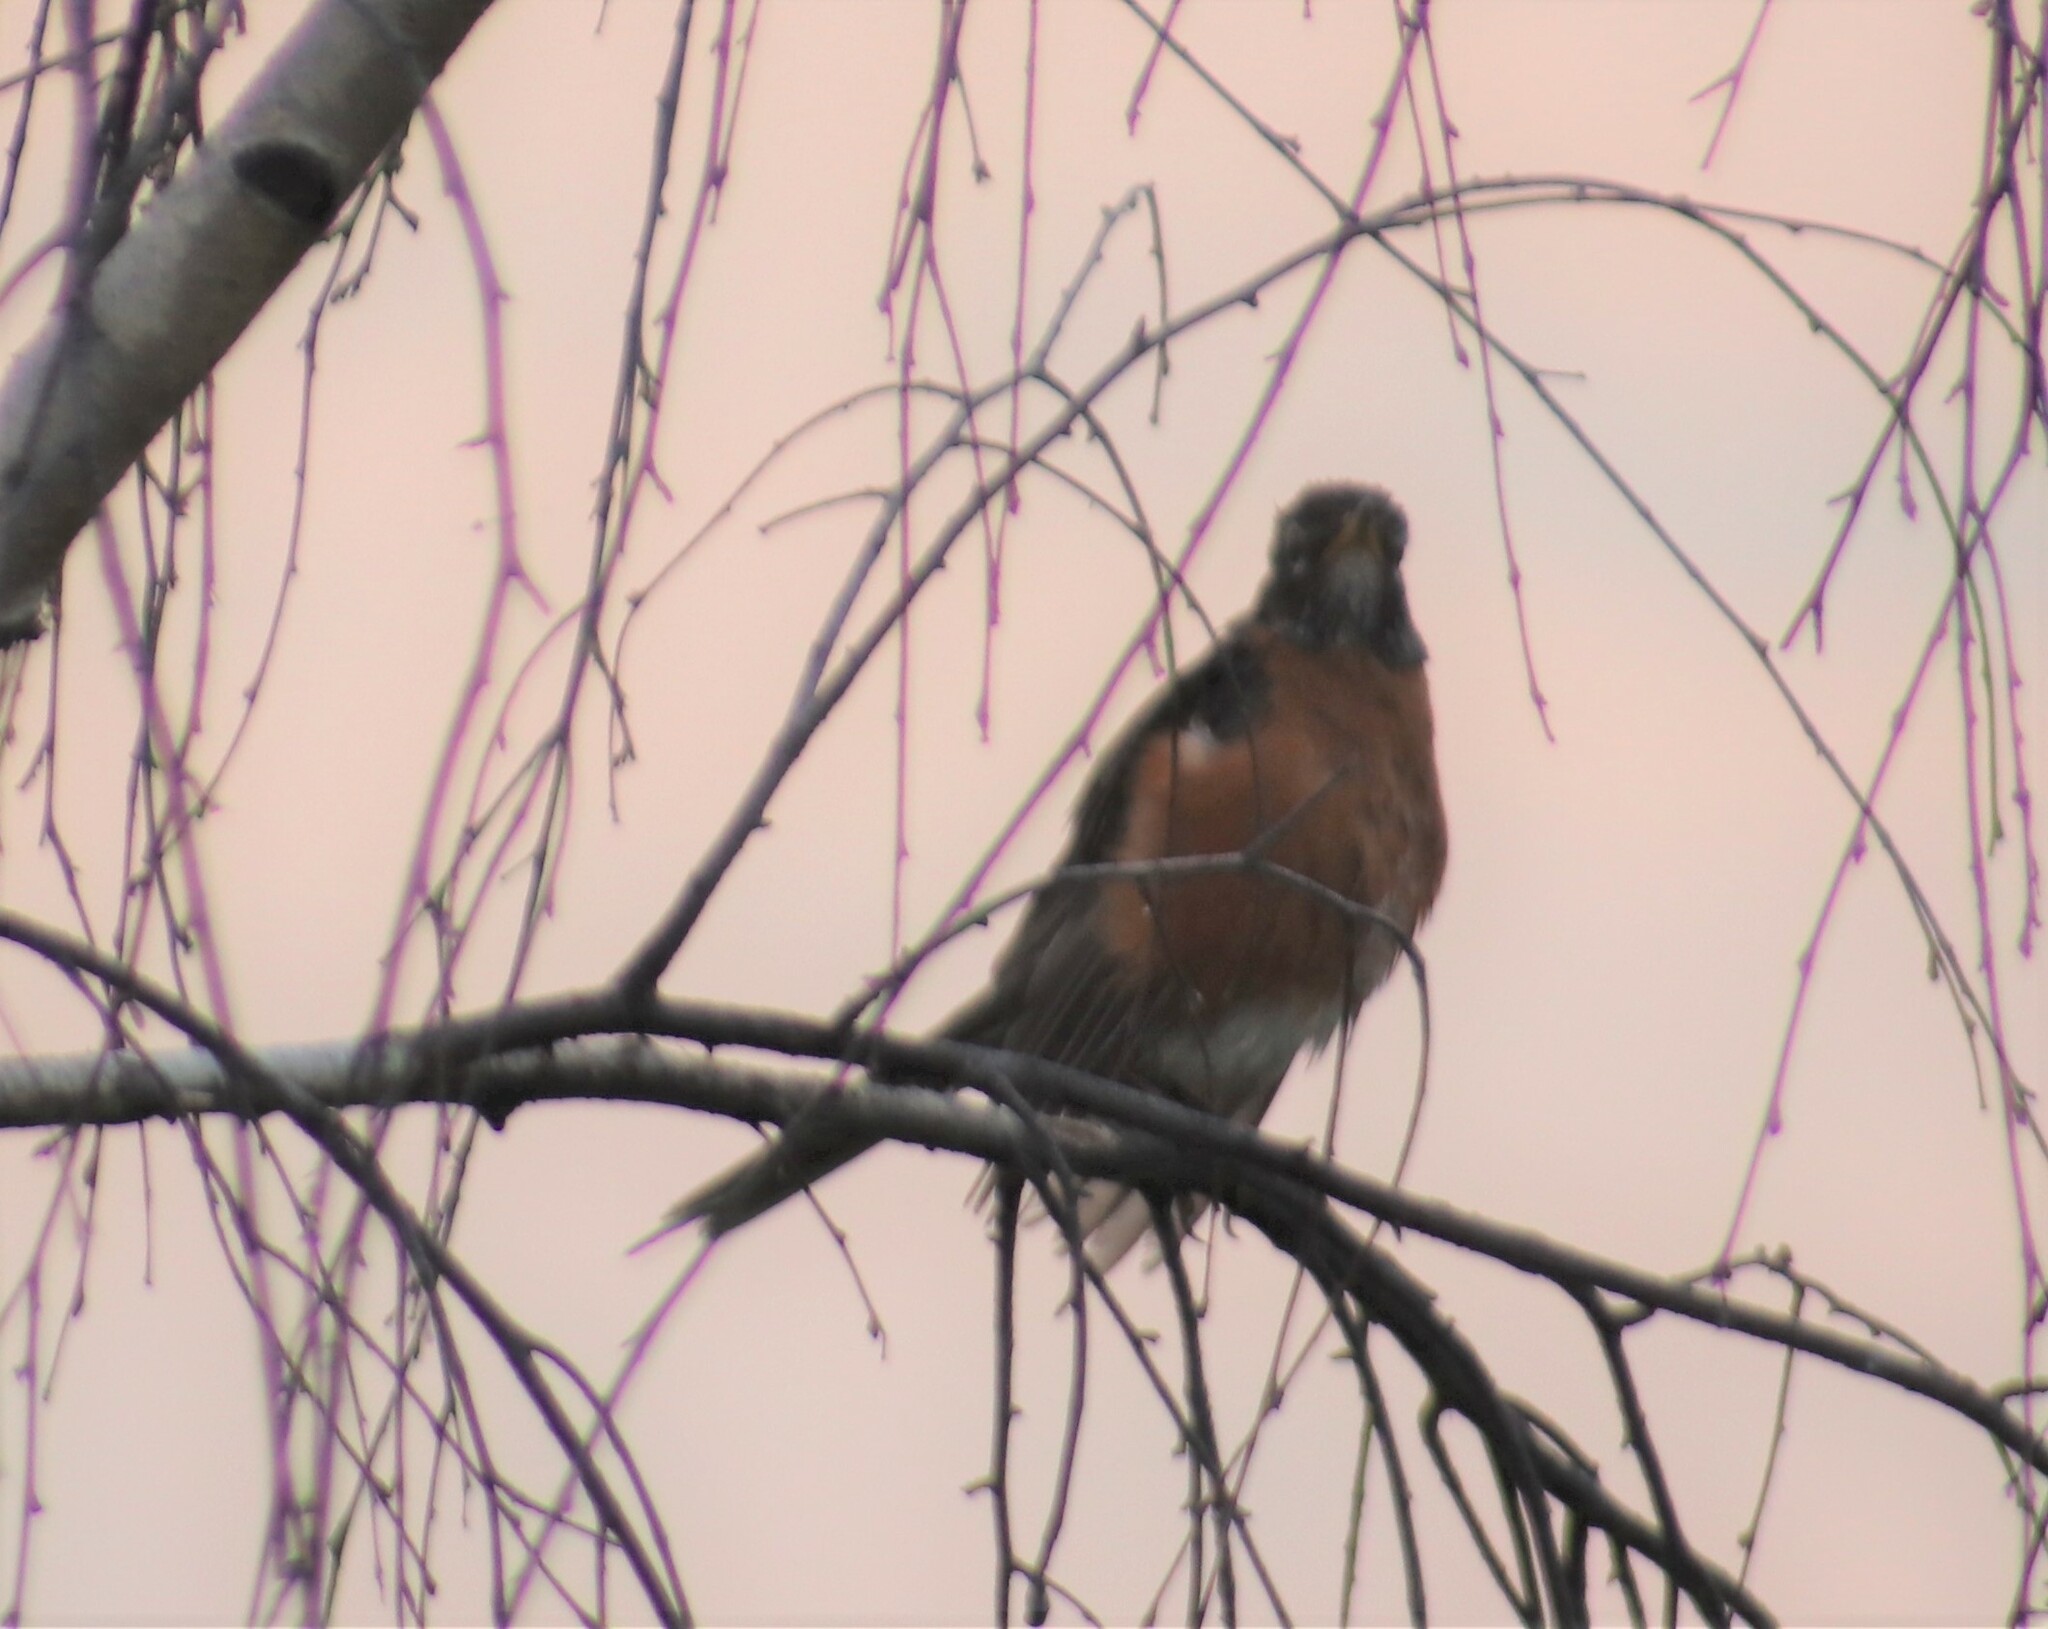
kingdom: Animalia
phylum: Chordata
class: Aves
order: Passeriformes
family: Turdidae
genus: Turdus
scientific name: Turdus migratorius
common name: American robin
